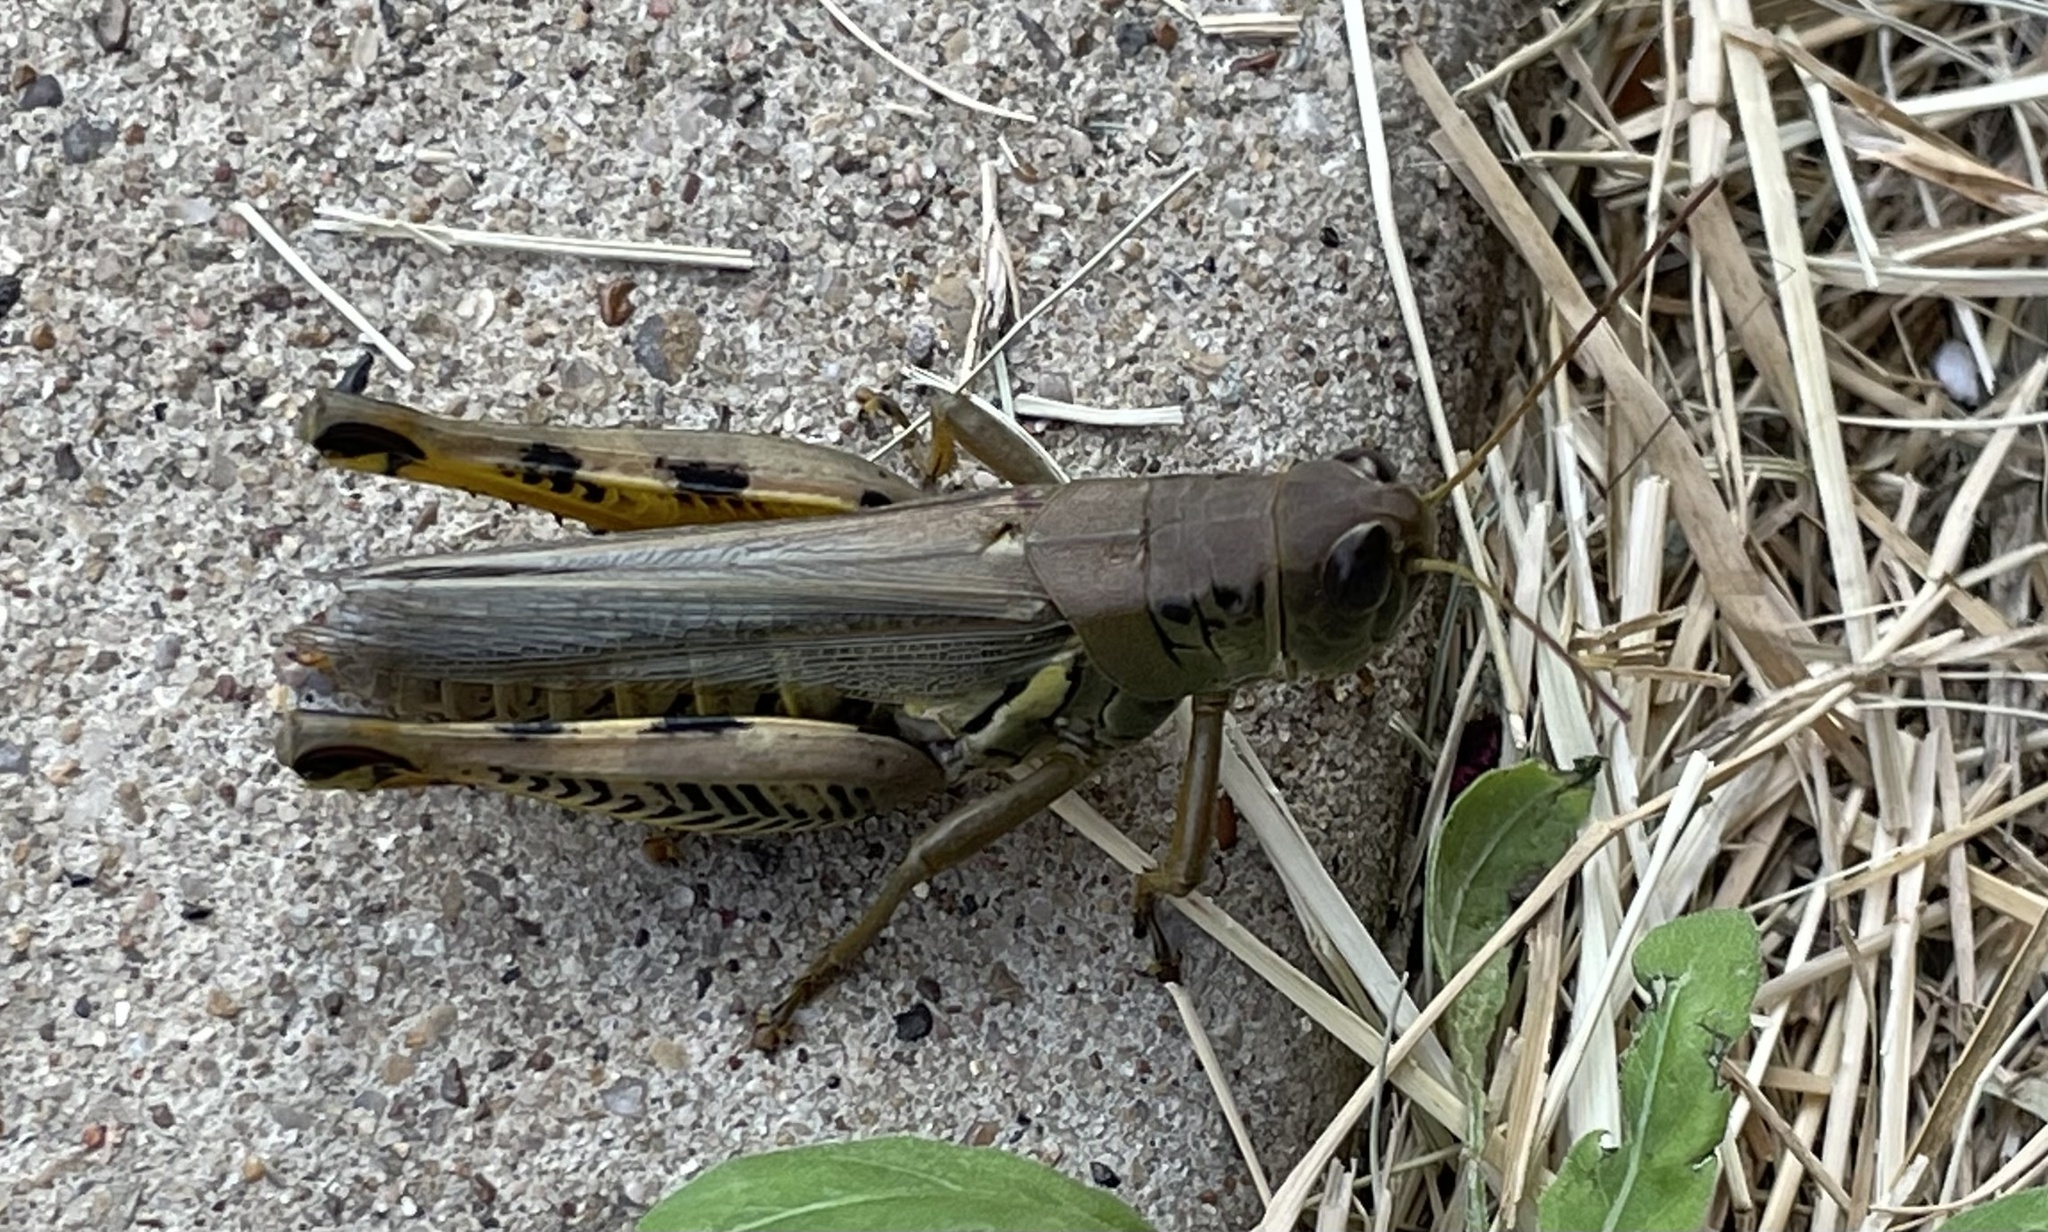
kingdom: Animalia
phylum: Arthropoda
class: Insecta
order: Orthoptera
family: Acrididae
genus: Melanoplus
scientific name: Melanoplus differentialis
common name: Differential grasshopper
